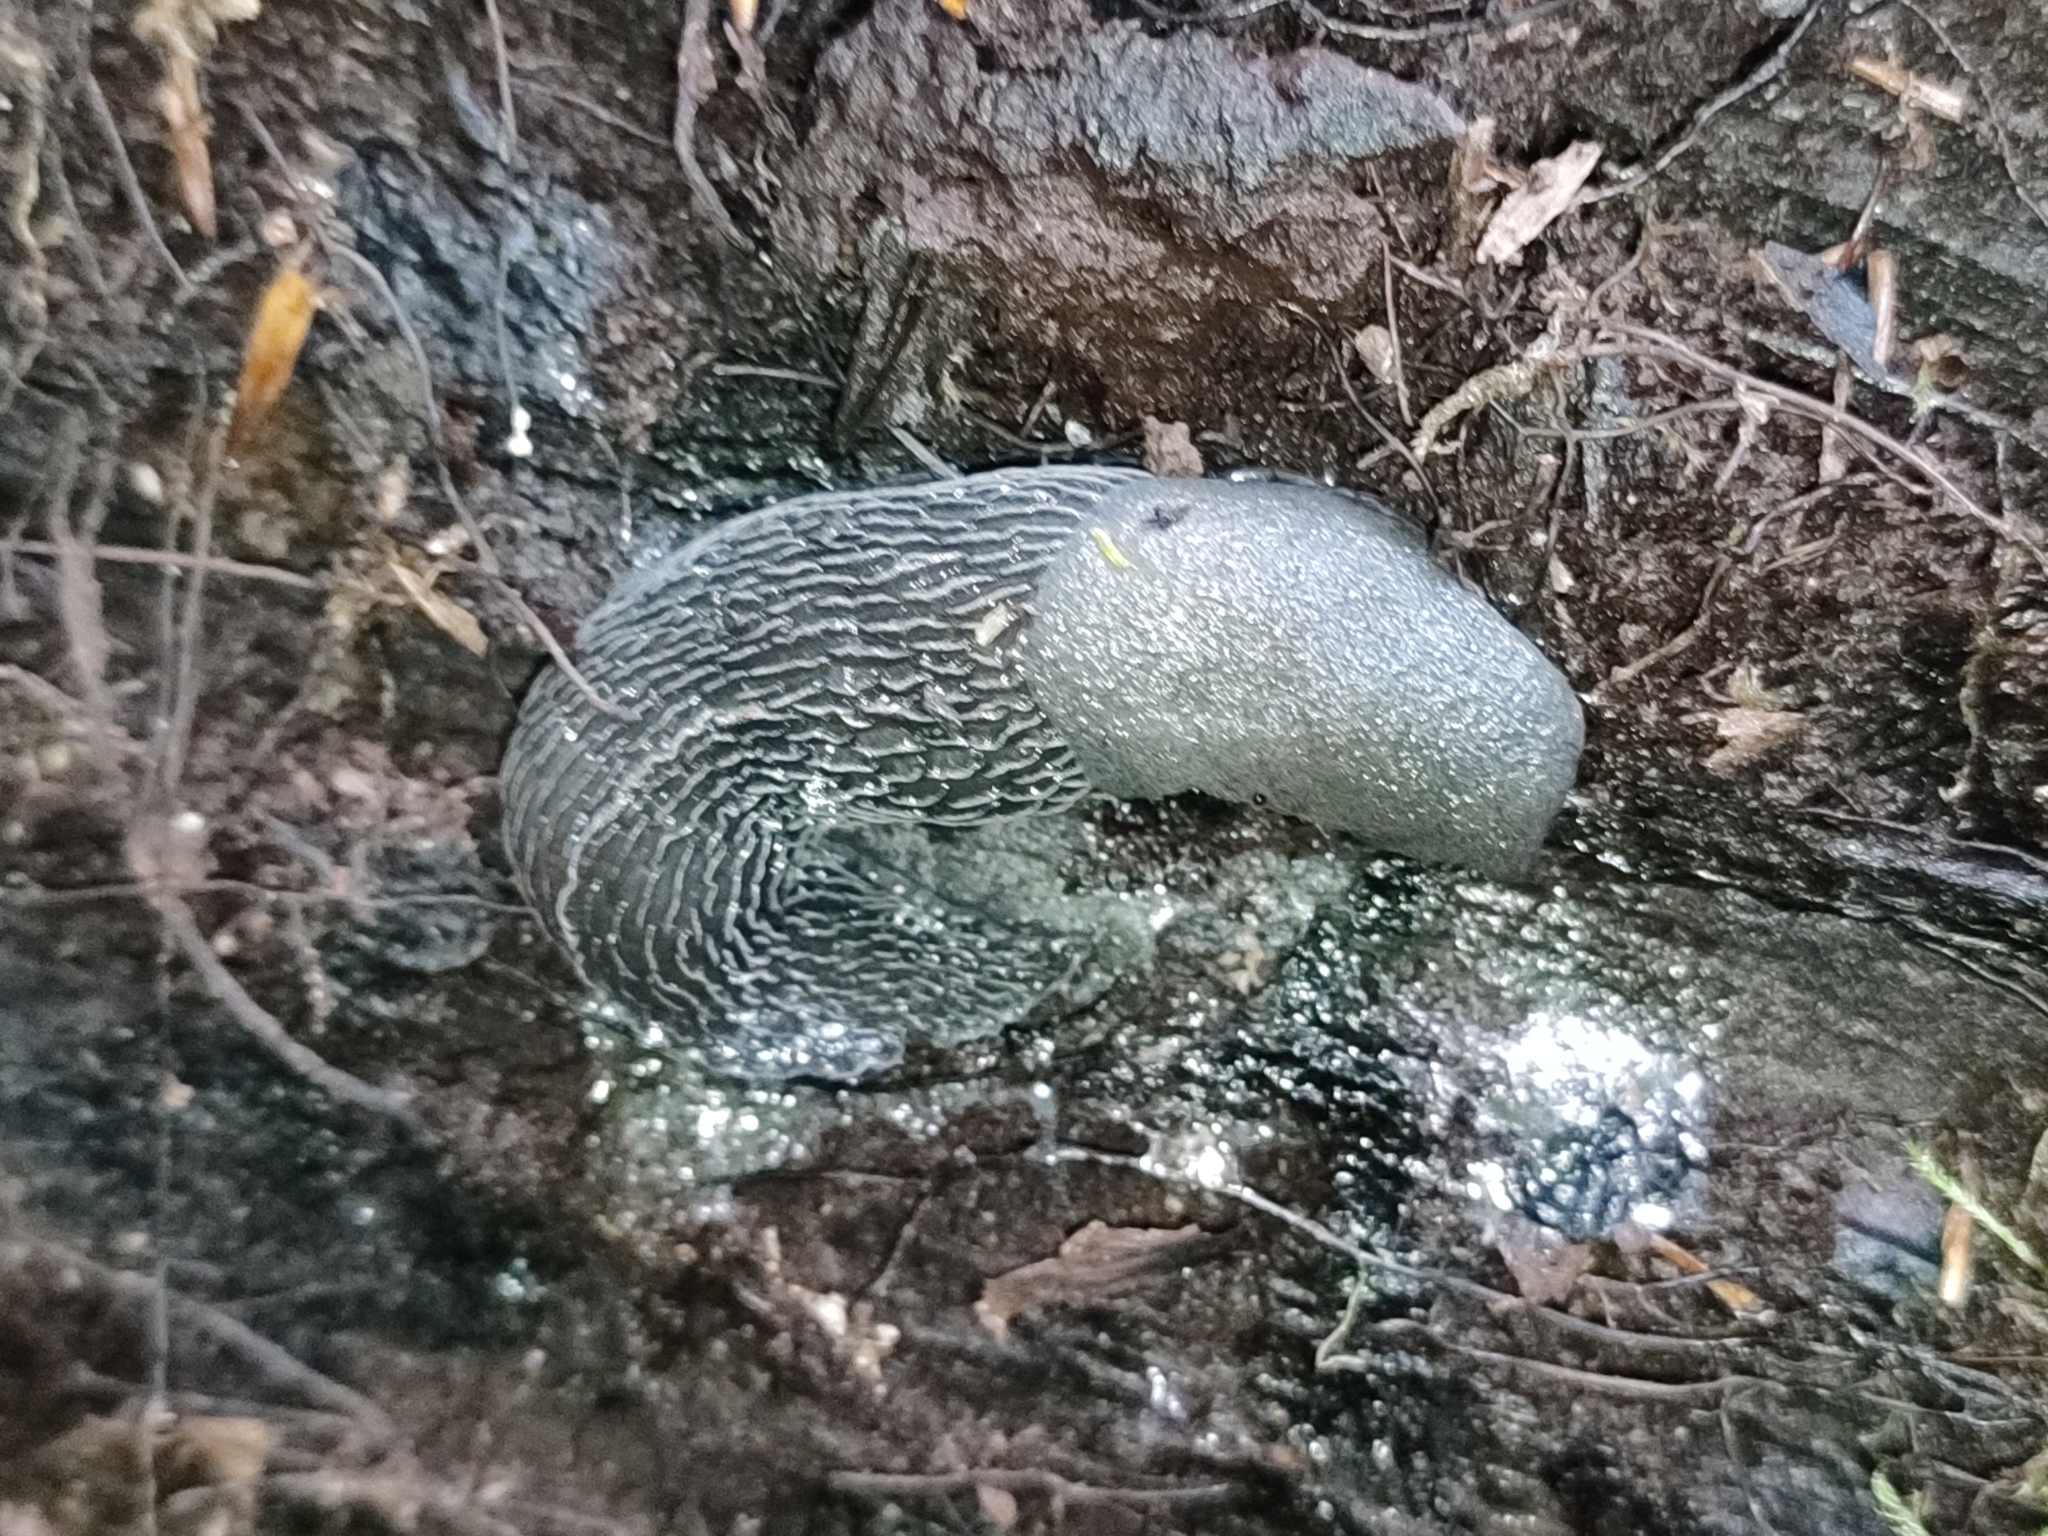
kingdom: Animalia
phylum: Mollusca
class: Gastropoda
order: Stylommatophora
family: Limacidae
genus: Bielzia
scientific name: Bielzia coerulans
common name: Carpathian blue slug
